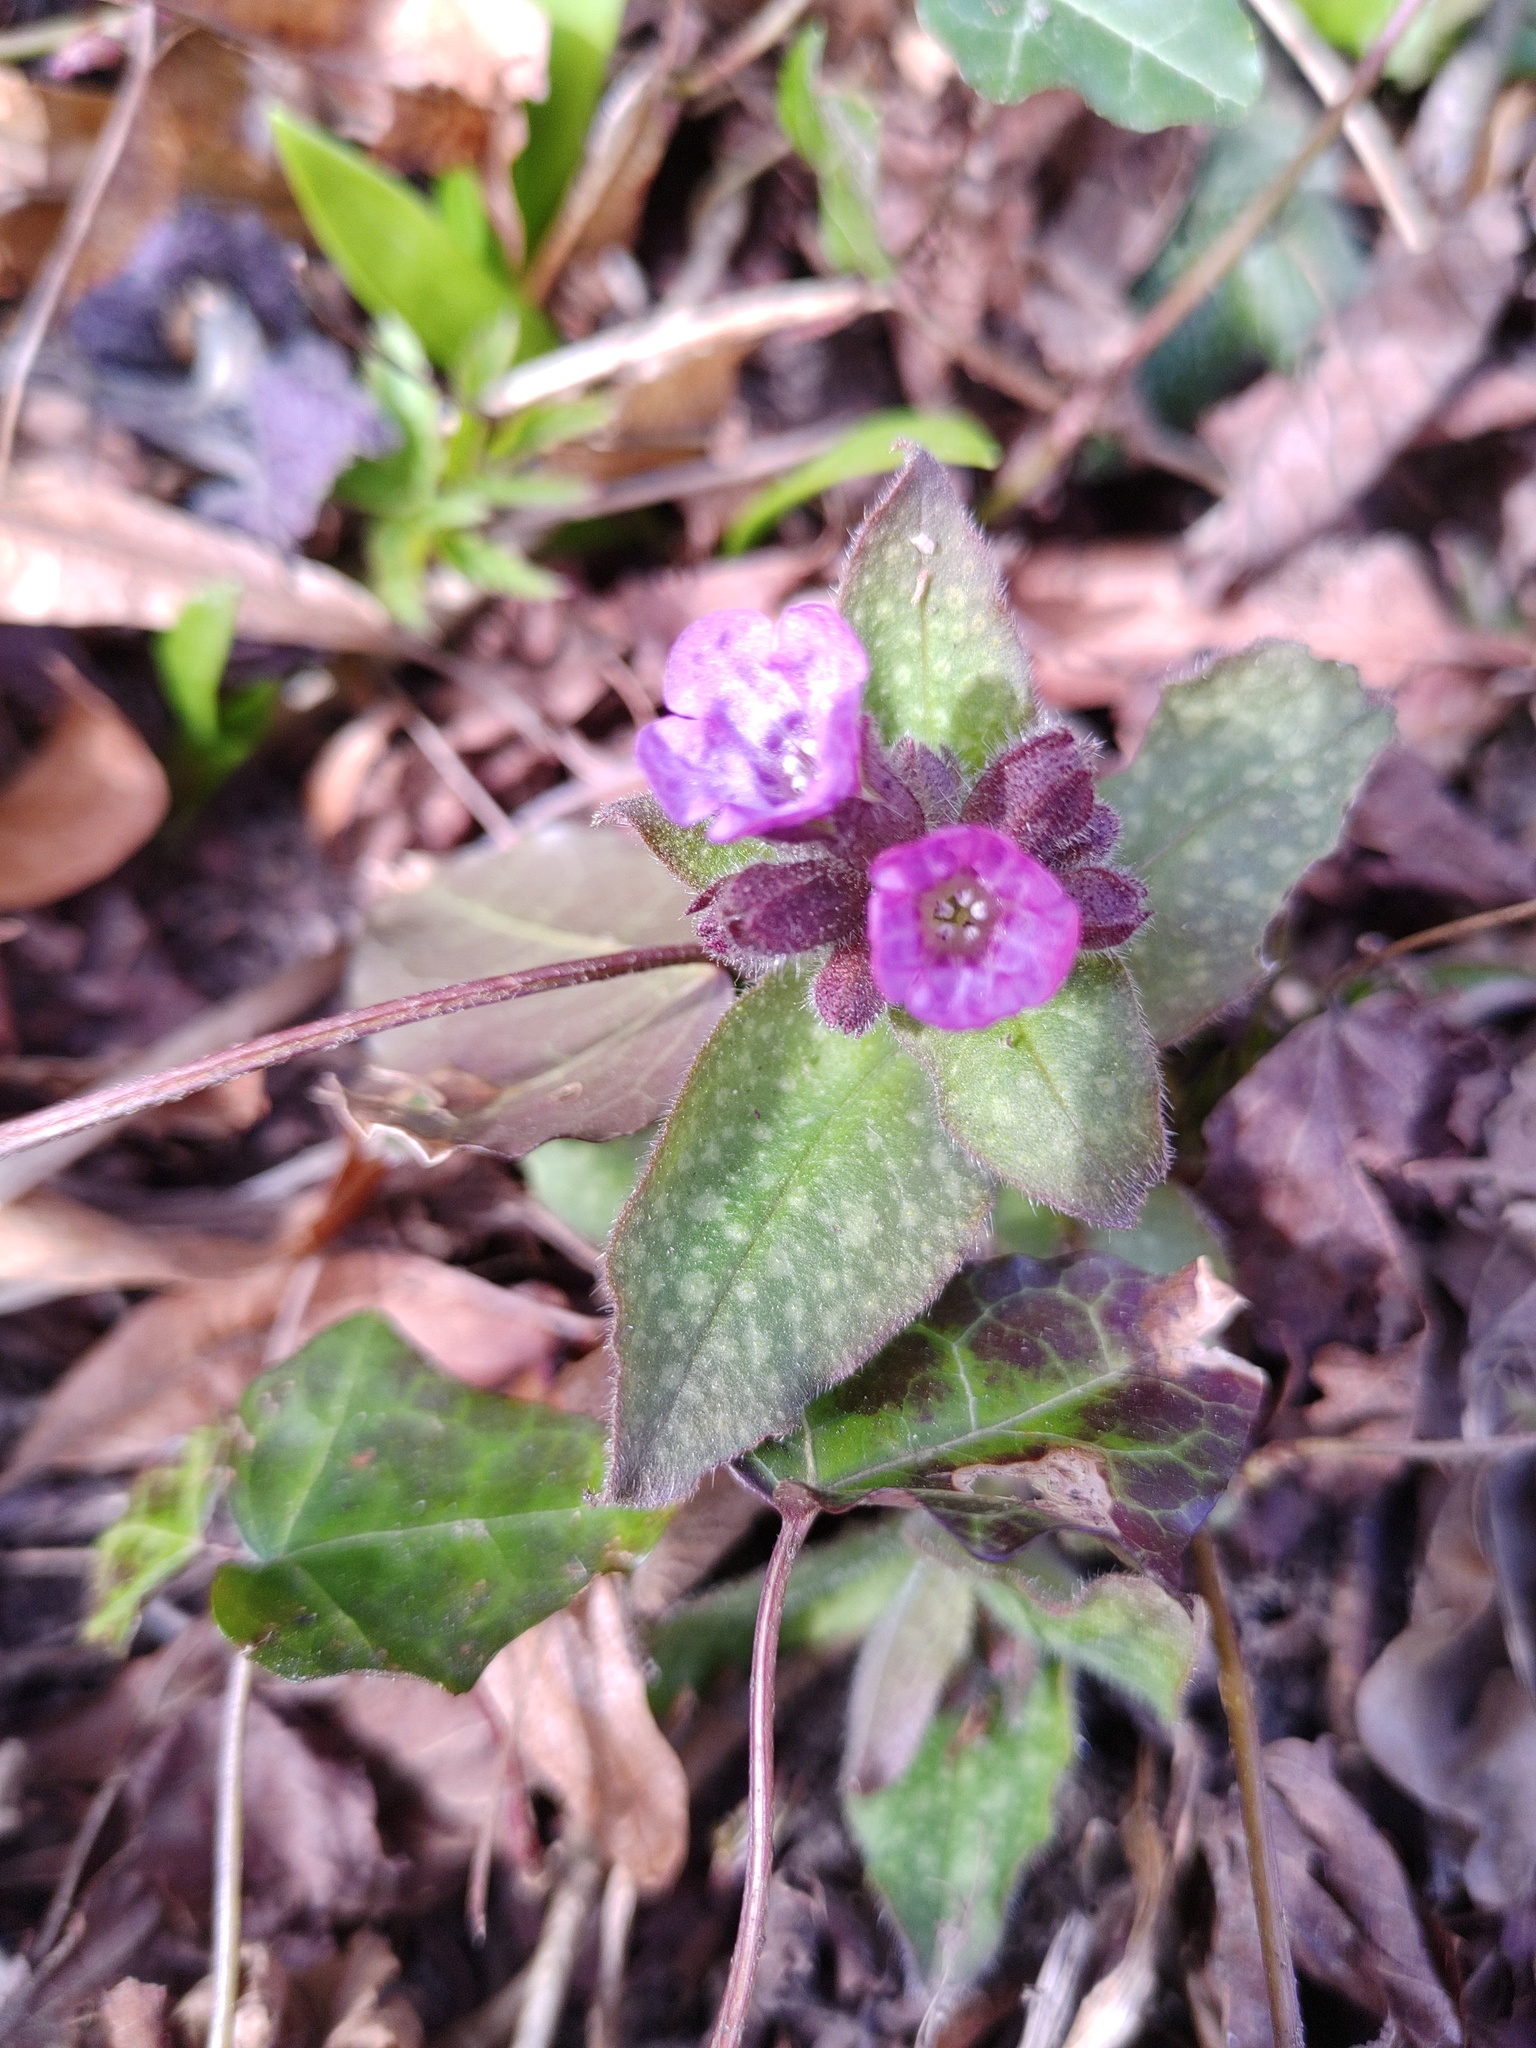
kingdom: Plantae
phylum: Tracheophyta
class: Magnoliopsida
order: Boraginales
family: Boraginaceae
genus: Pulmonaria
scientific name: Pulmonaria officinalis
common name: Lungwort
